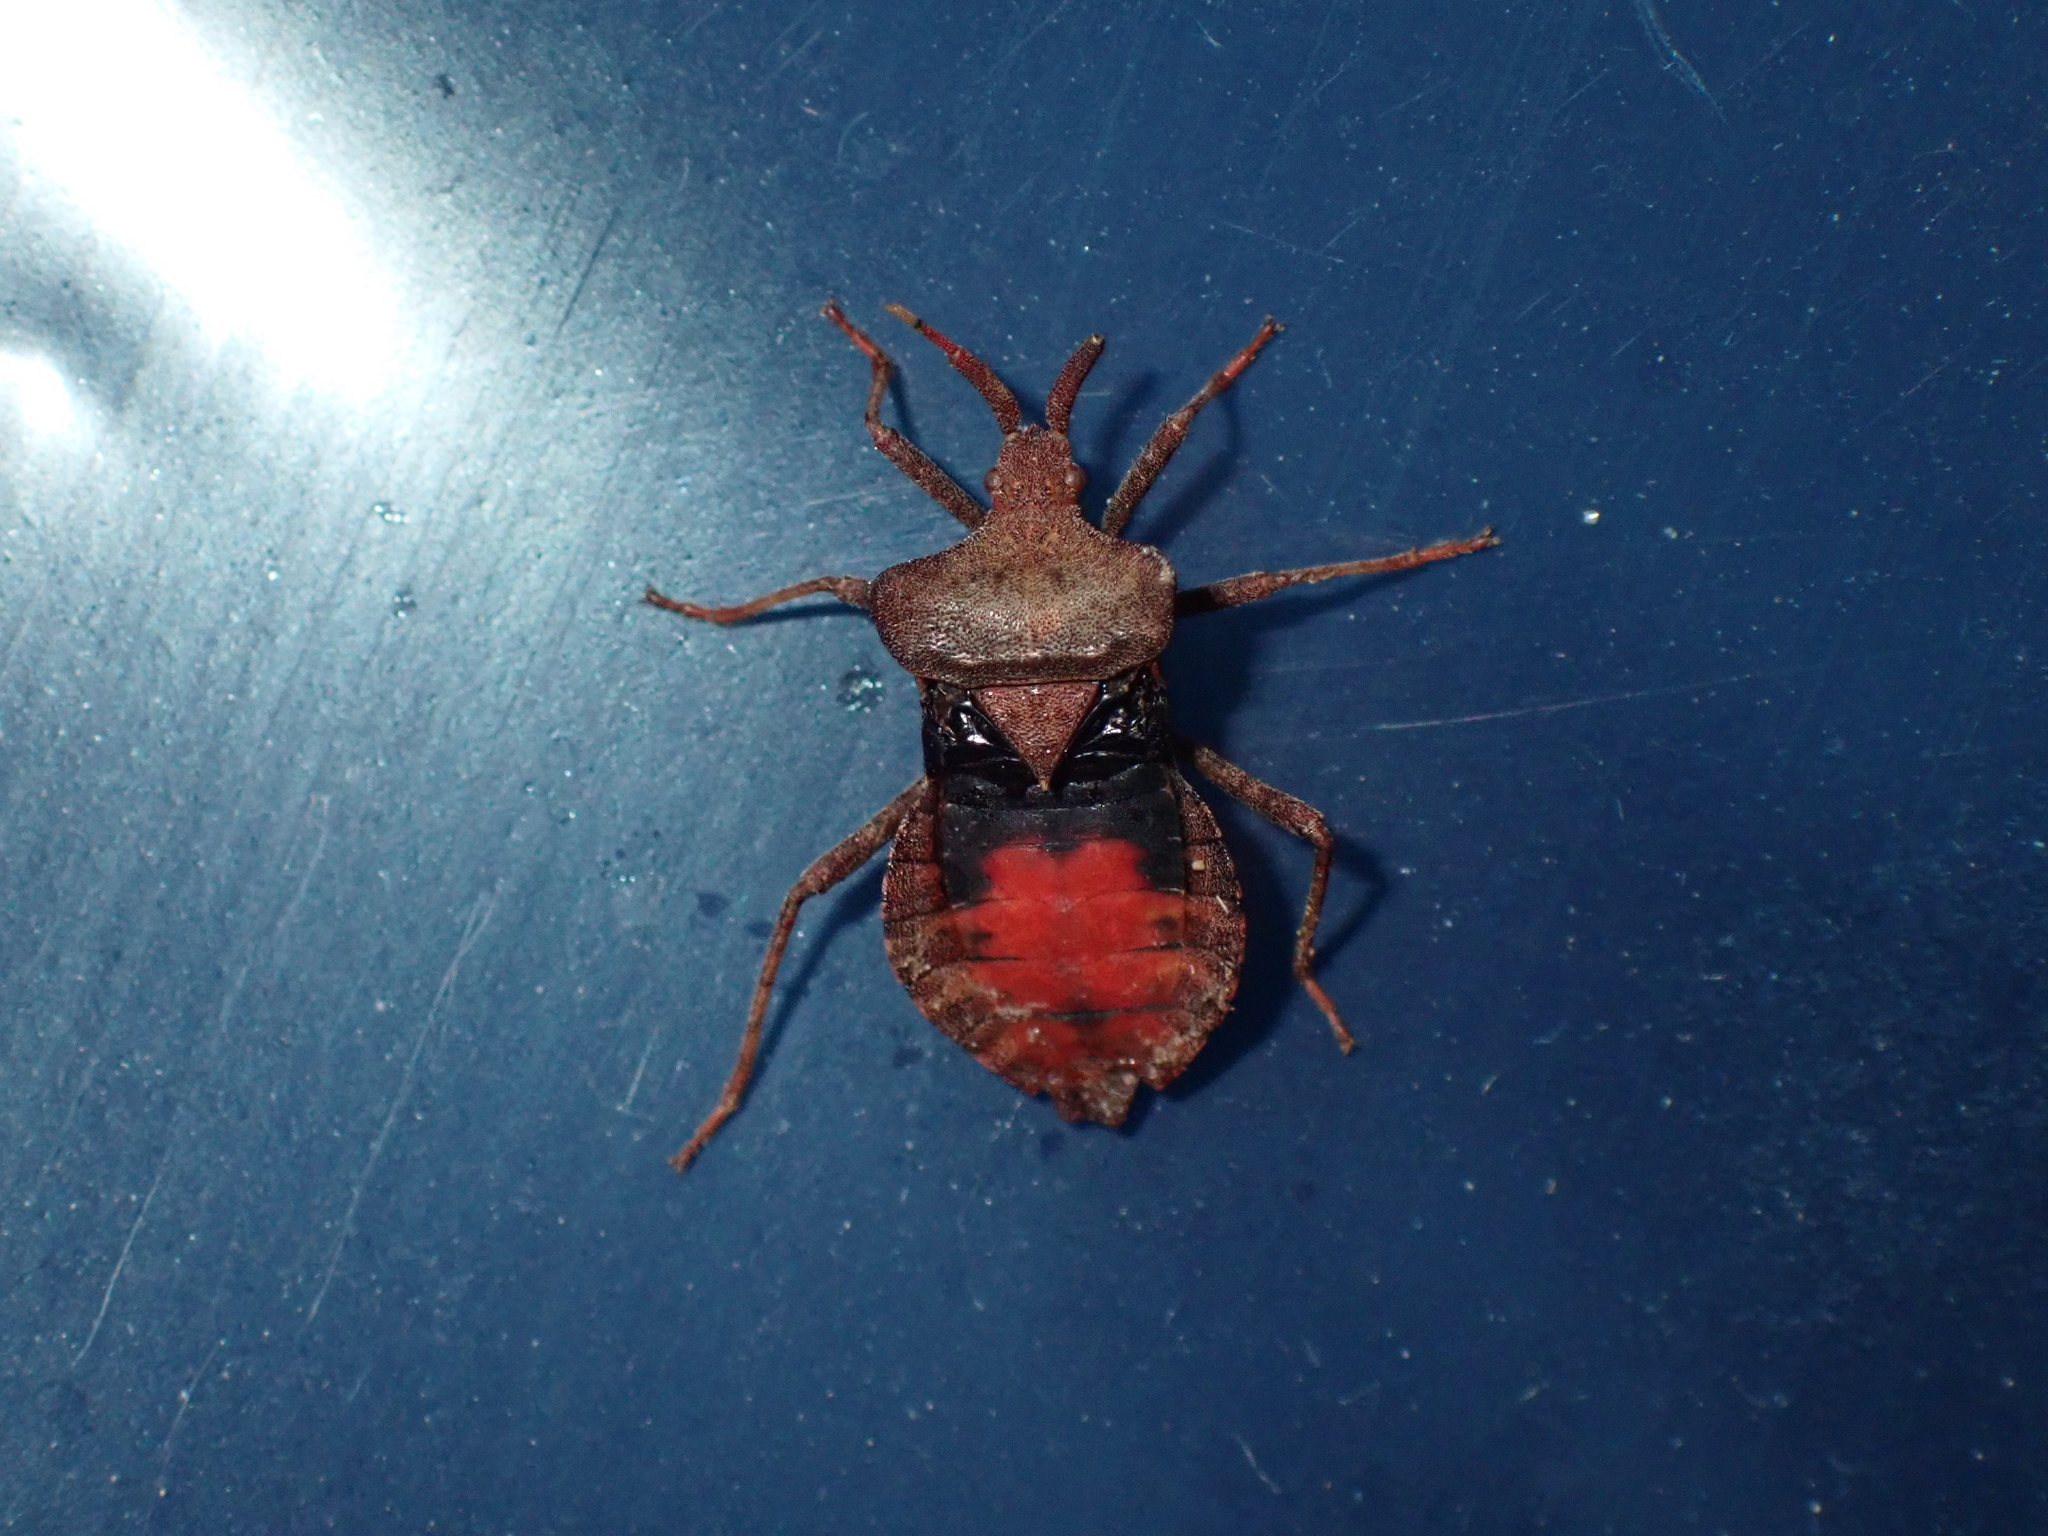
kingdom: Animalia
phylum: Arthropoda
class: Insecta
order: Hemiptera
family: Coreidae
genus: Coreus
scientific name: Coreus marginatus
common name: Dock bug
